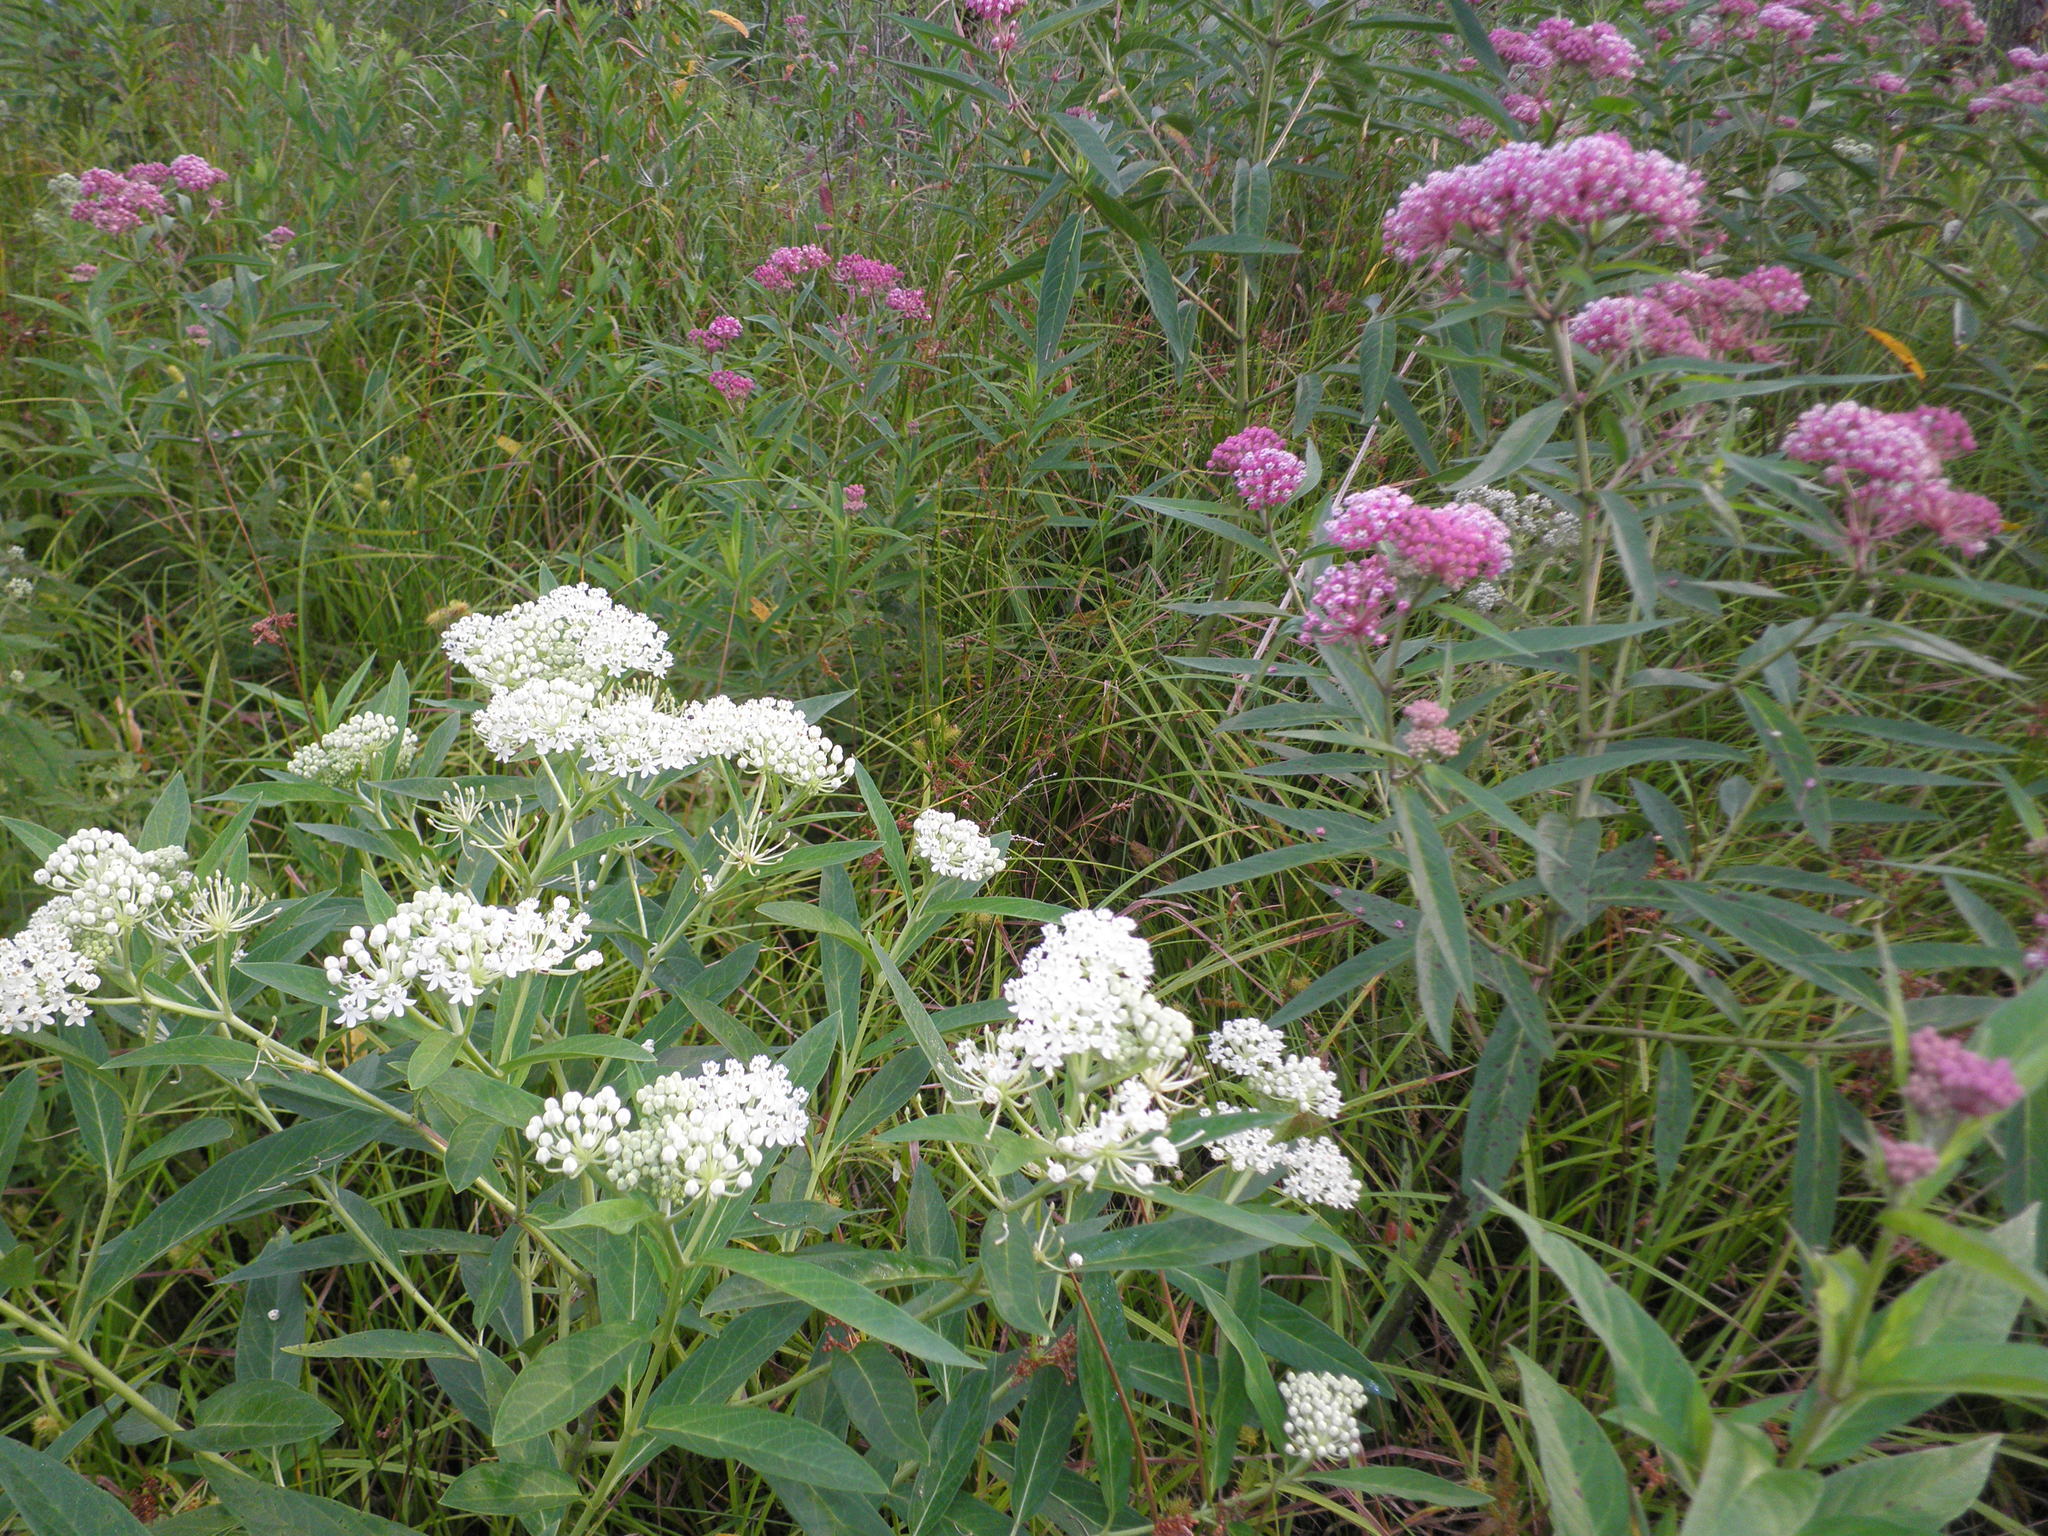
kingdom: Plantae
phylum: Tracheophyta
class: Magnoliopsida
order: Gentianales
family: Apocynaceae
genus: Asclepias
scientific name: Asclepias incarnata
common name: Swamp milkweed
